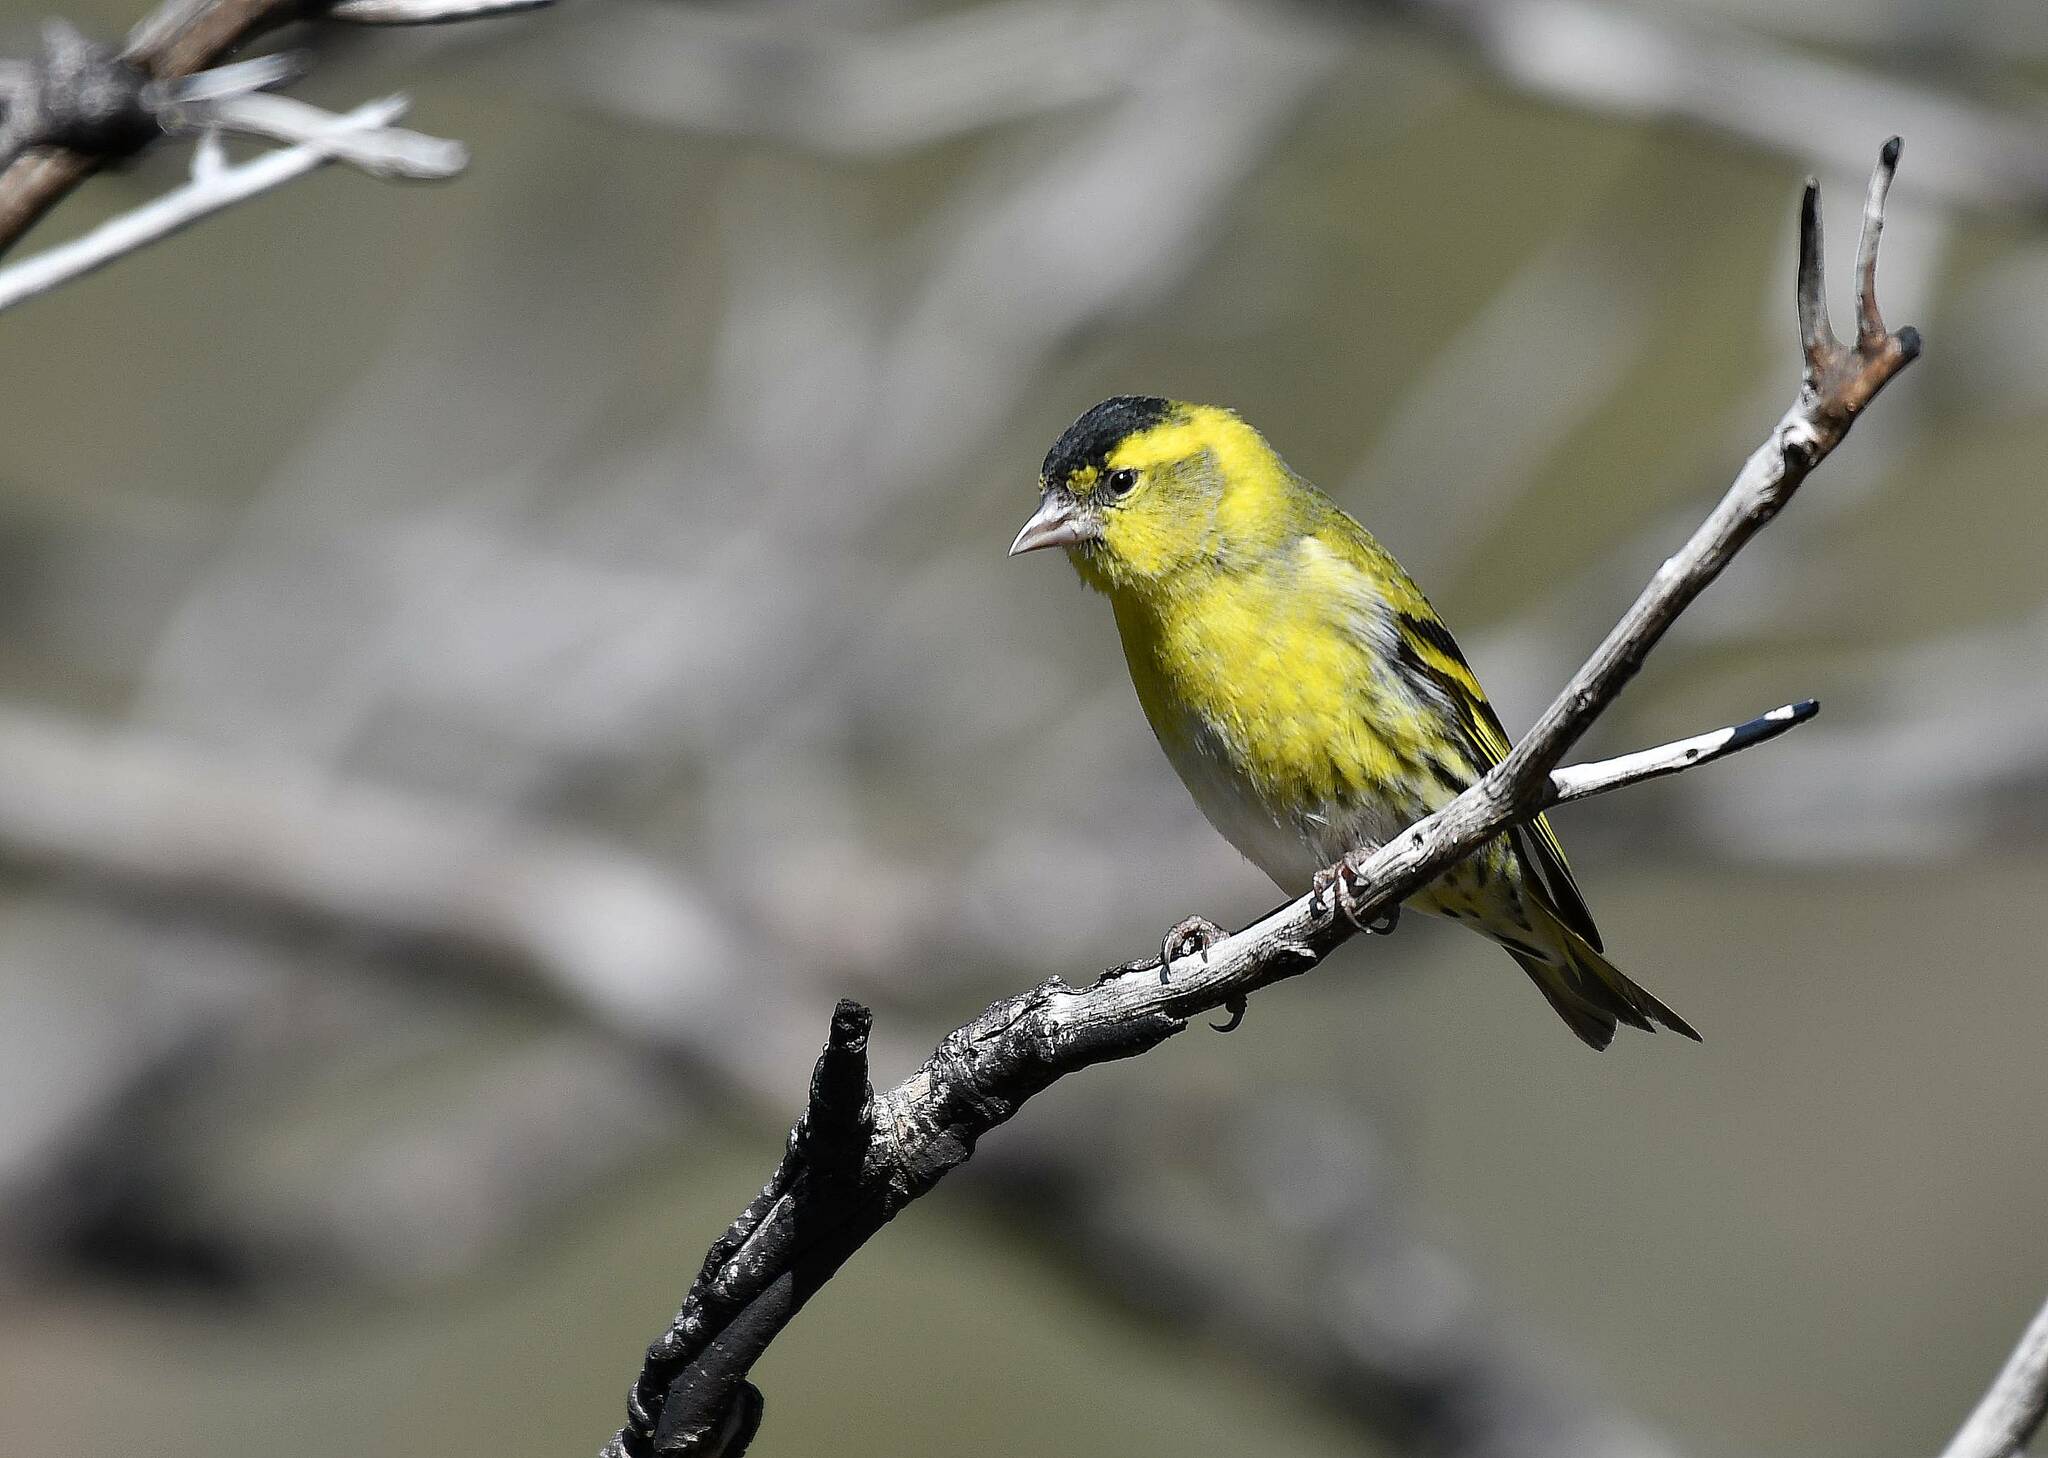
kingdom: Animalia
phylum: Chordata
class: Aves
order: Passeriformes
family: Fringillidae
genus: Spinus
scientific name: Spinus spinus
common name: Eurasian siskin
